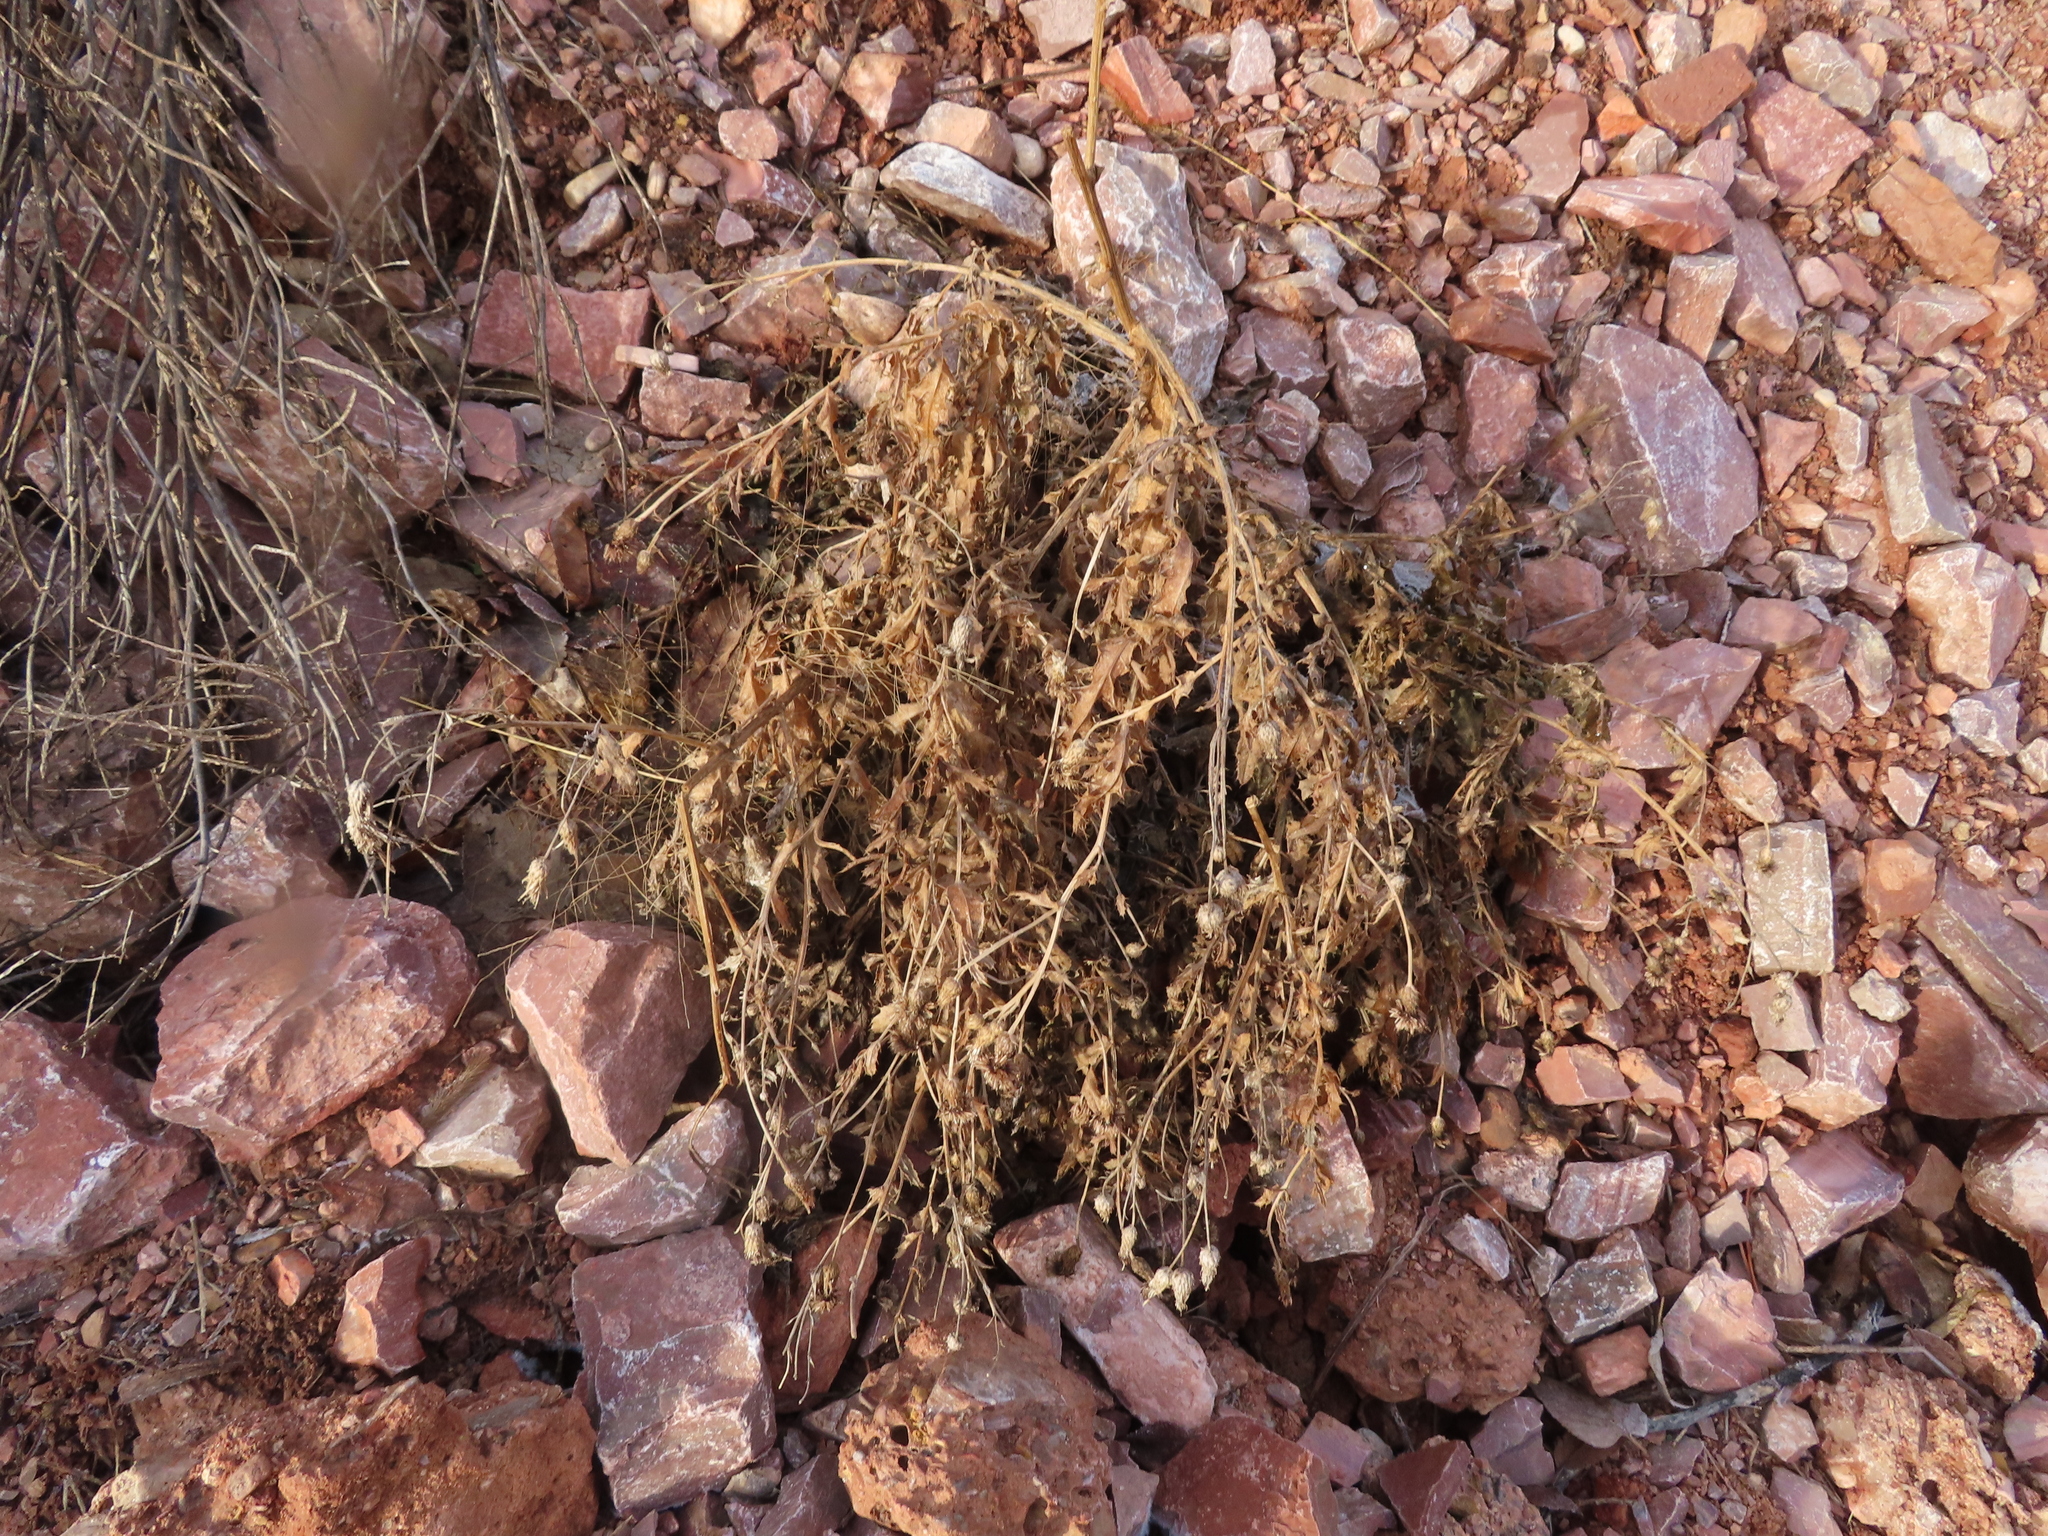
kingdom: Plantae
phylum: Tracheophyta
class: Magnoliopsida
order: Asterales
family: Asteraceae
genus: Cirsium
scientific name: Cirsium arvense
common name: Creeping thistle
